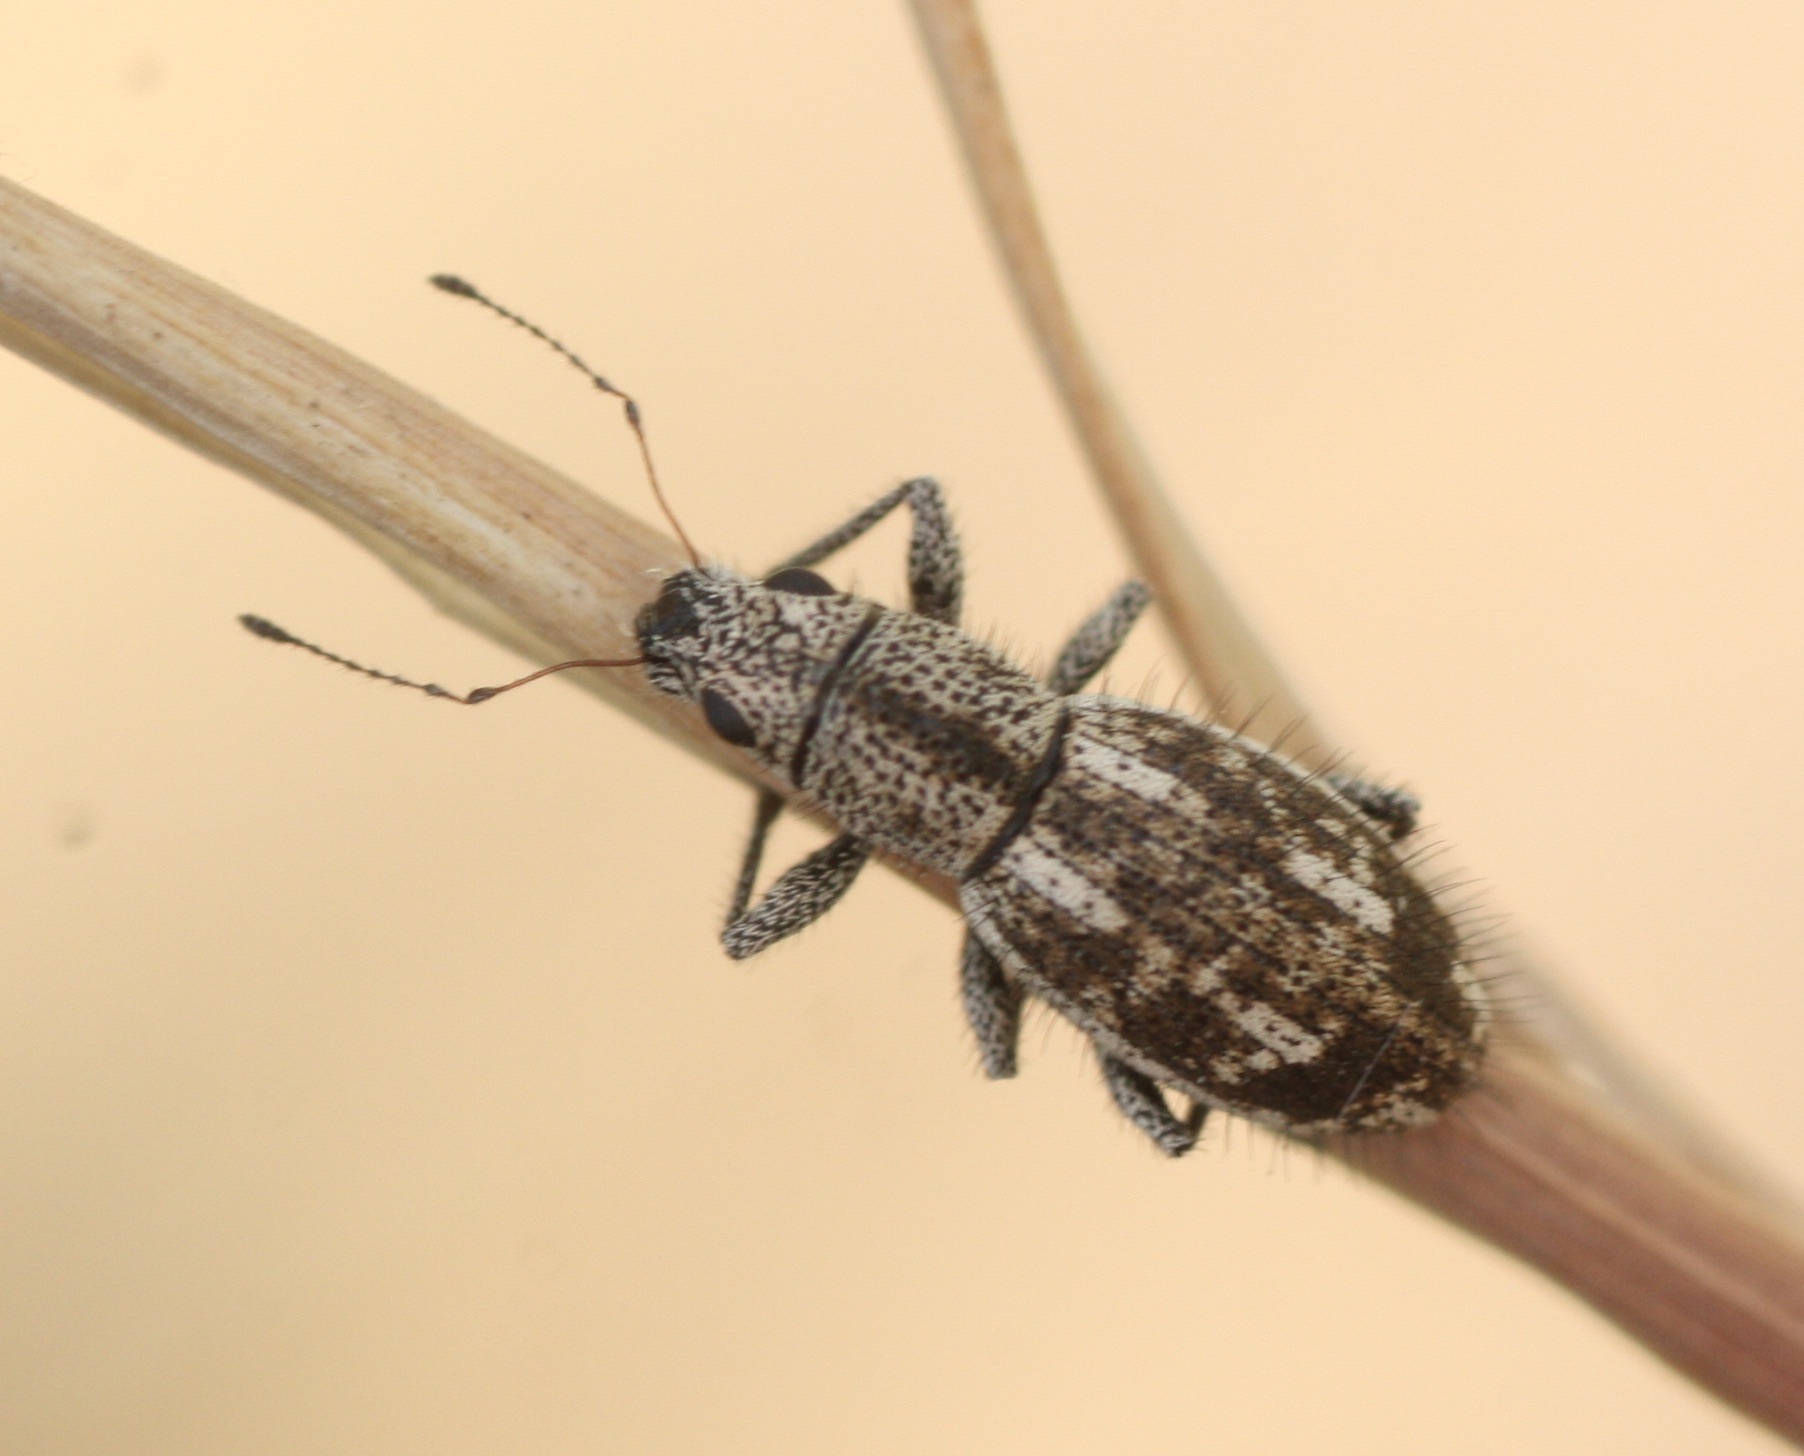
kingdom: Animalia
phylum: Arthropoda
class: Insecta
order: Coleoptera
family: Curculionidae
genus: Mitostylus
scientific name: Mitostylus setosus
